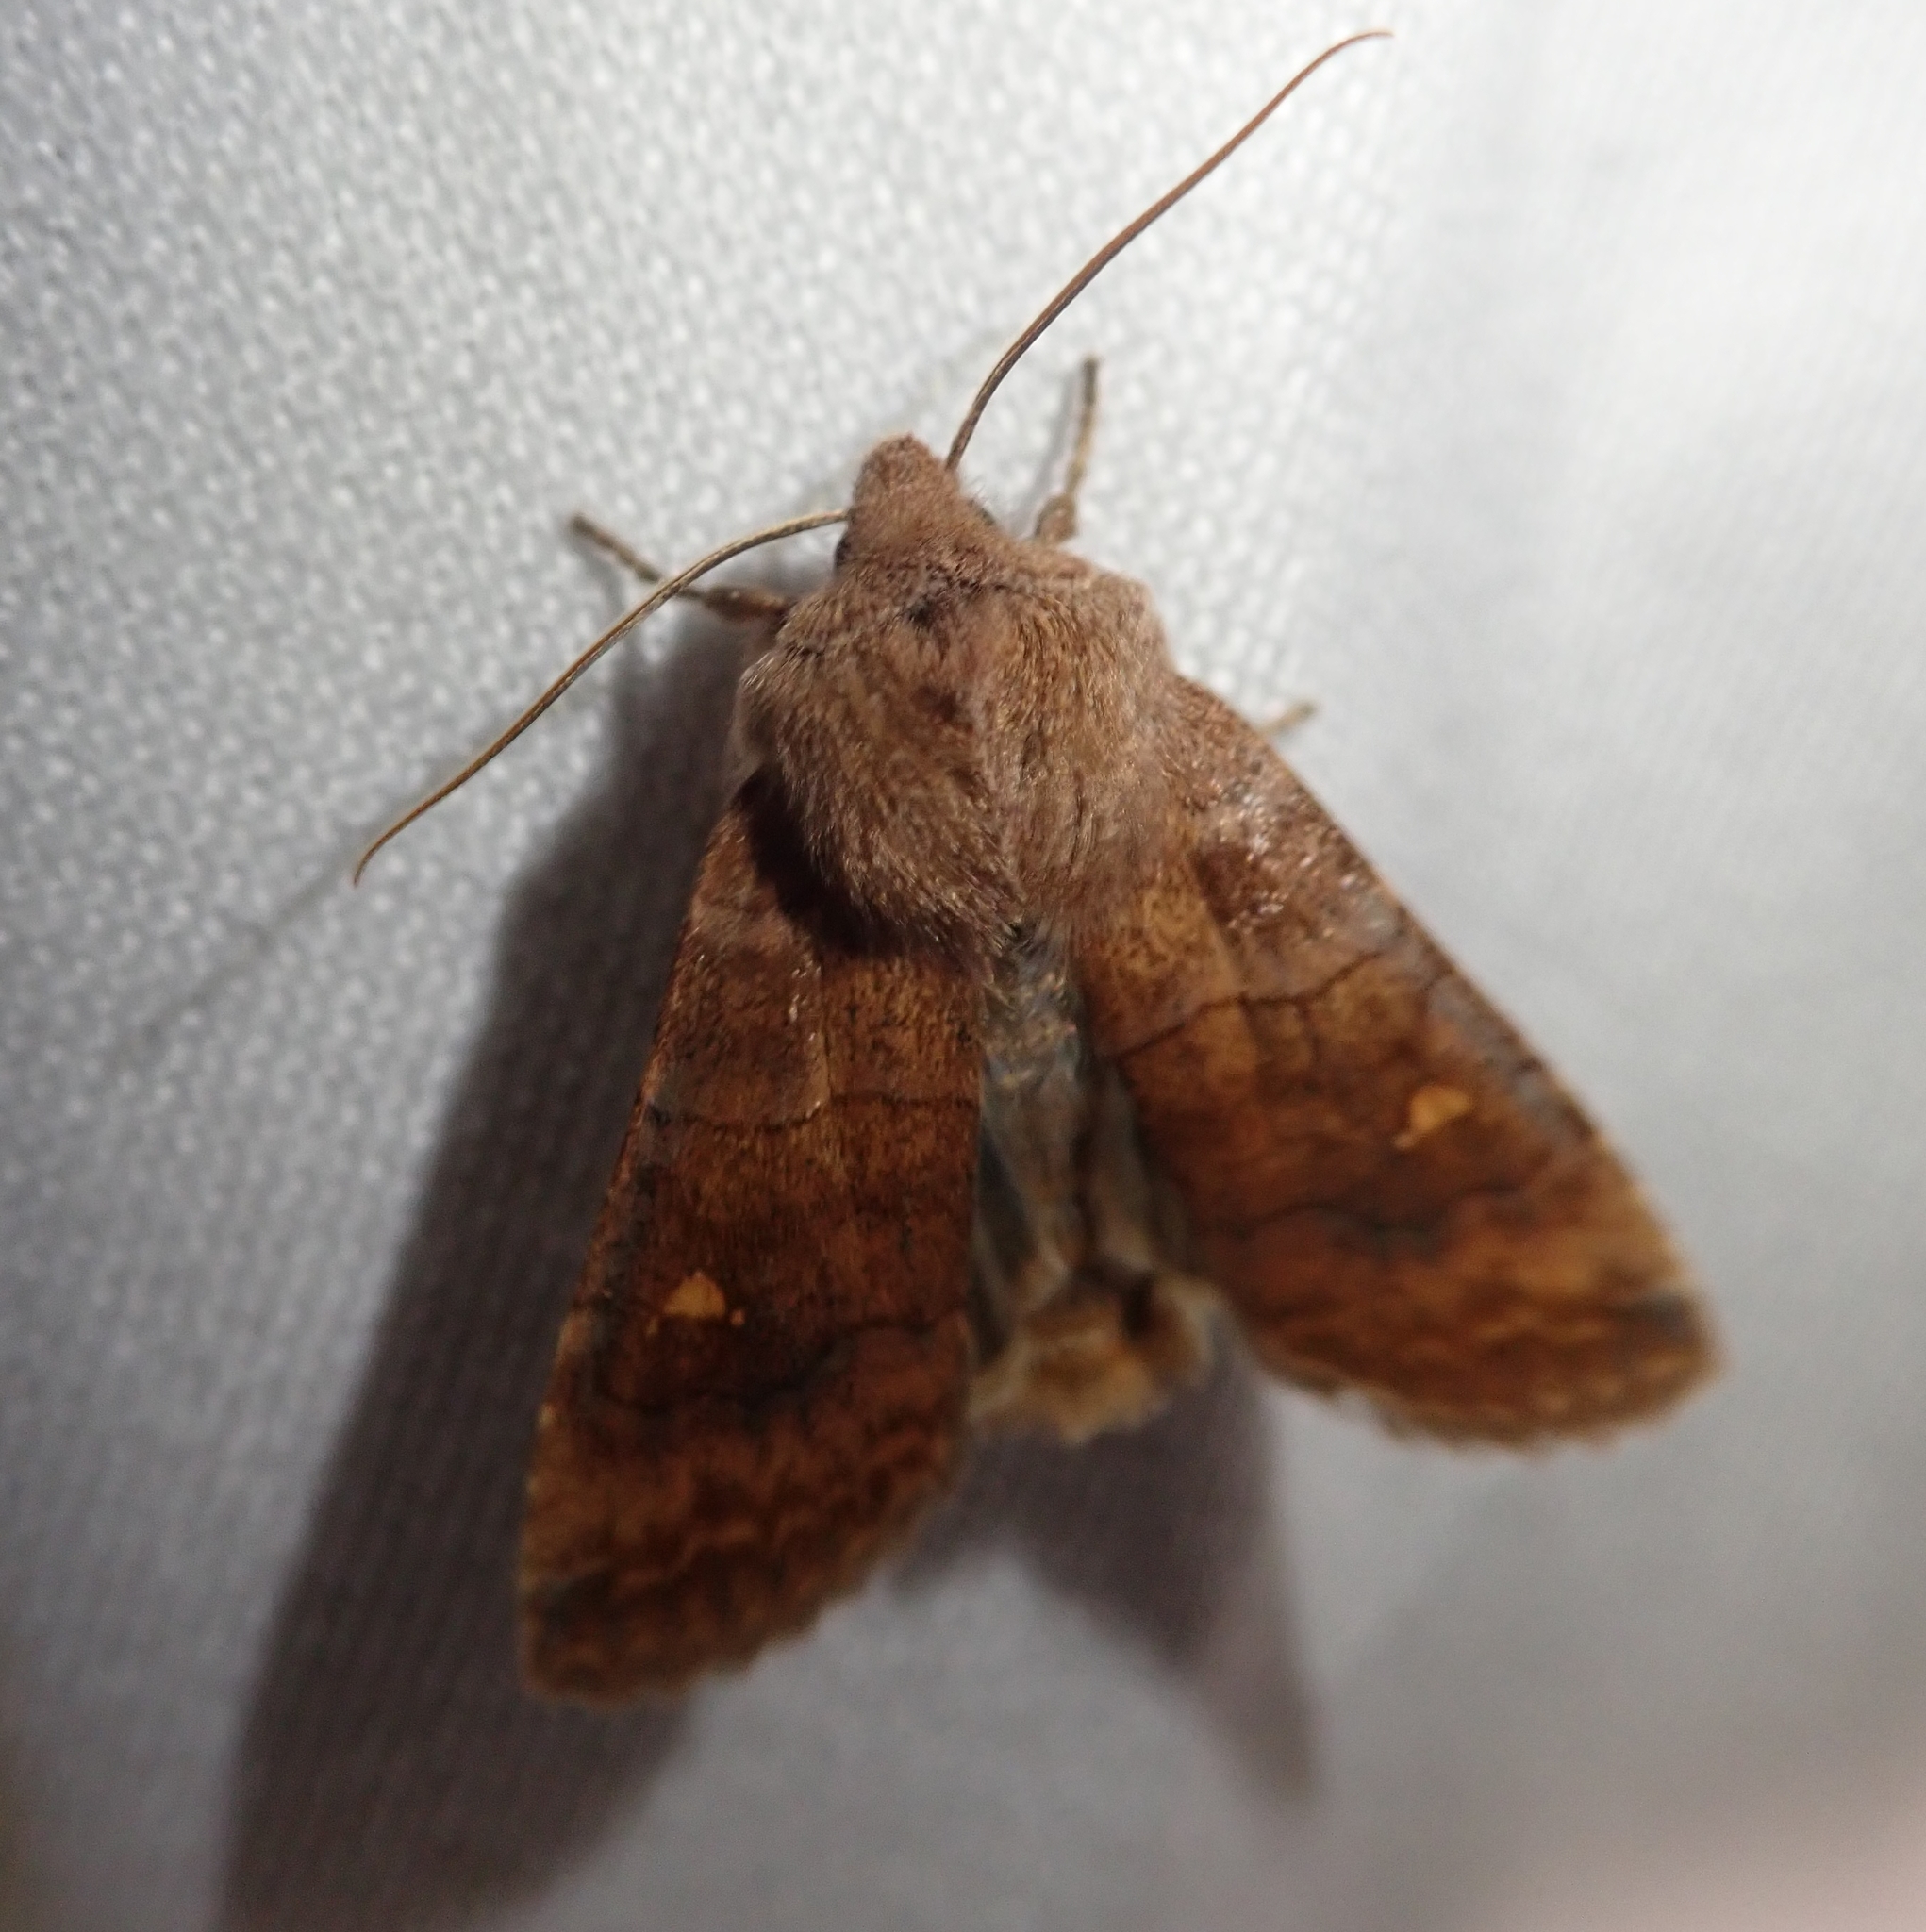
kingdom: Animalia
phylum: Arthropoda
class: Insecta
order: Lepidoptera
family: Noctuidae
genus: Eupsilia
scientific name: Eupsilia transversa
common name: Satellite
